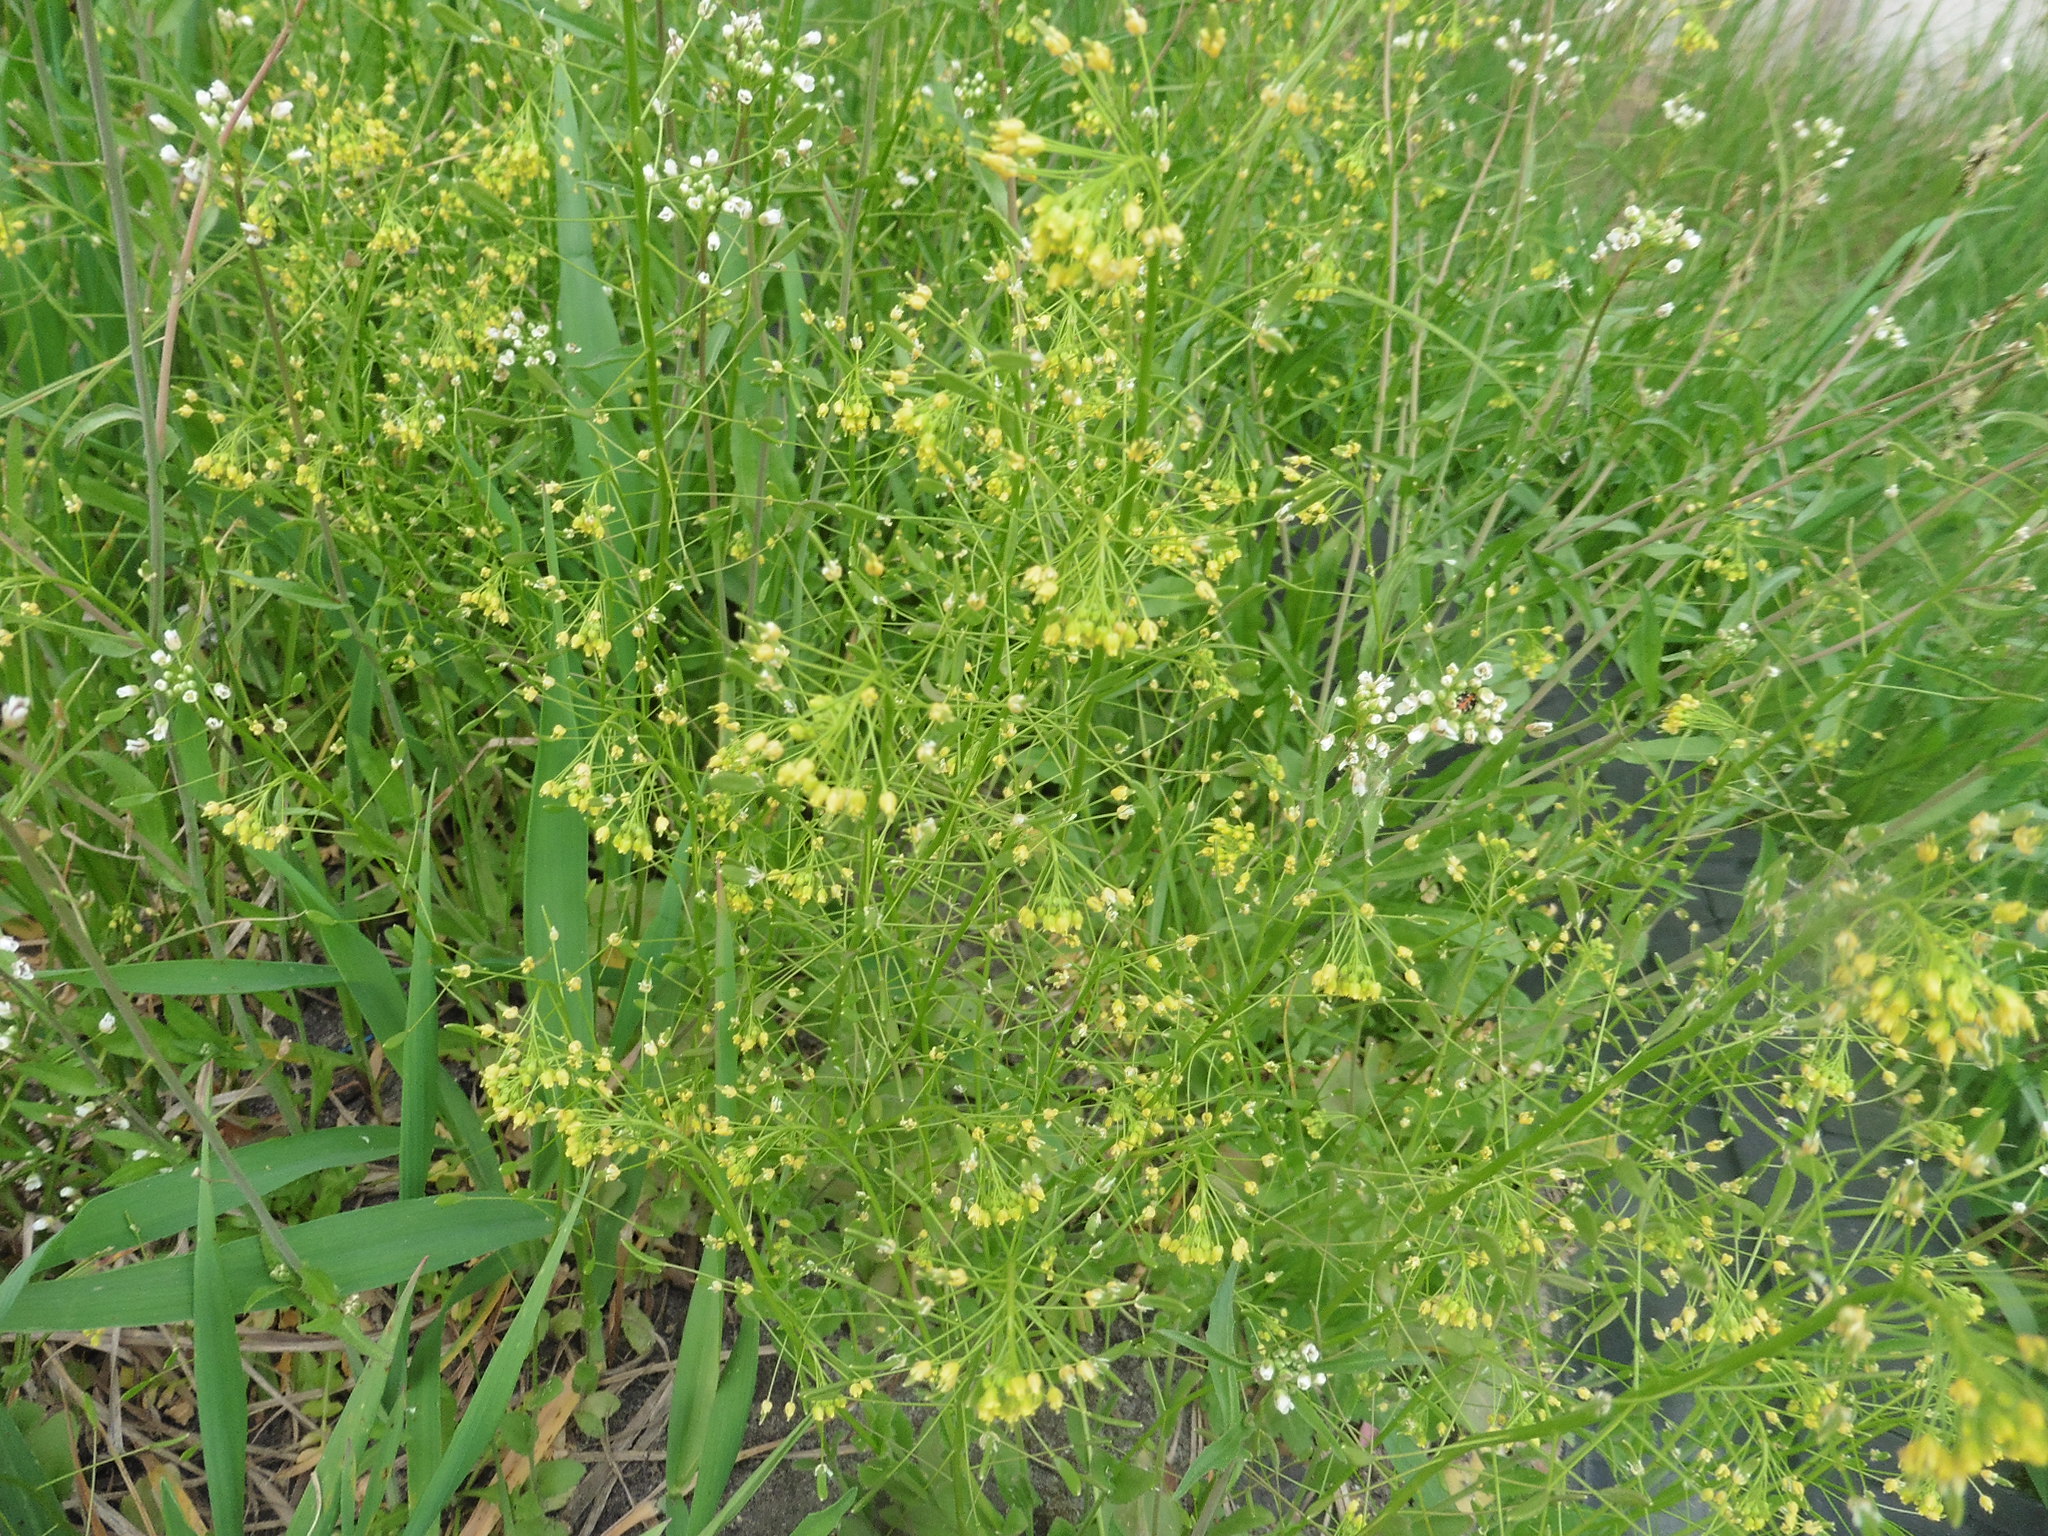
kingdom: Plantae
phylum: Tracheophyta
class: Magnoliopsida
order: Brassicales
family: Brassicaceae
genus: Draba
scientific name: Draba nemorosa
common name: Wood whitlow-grass
